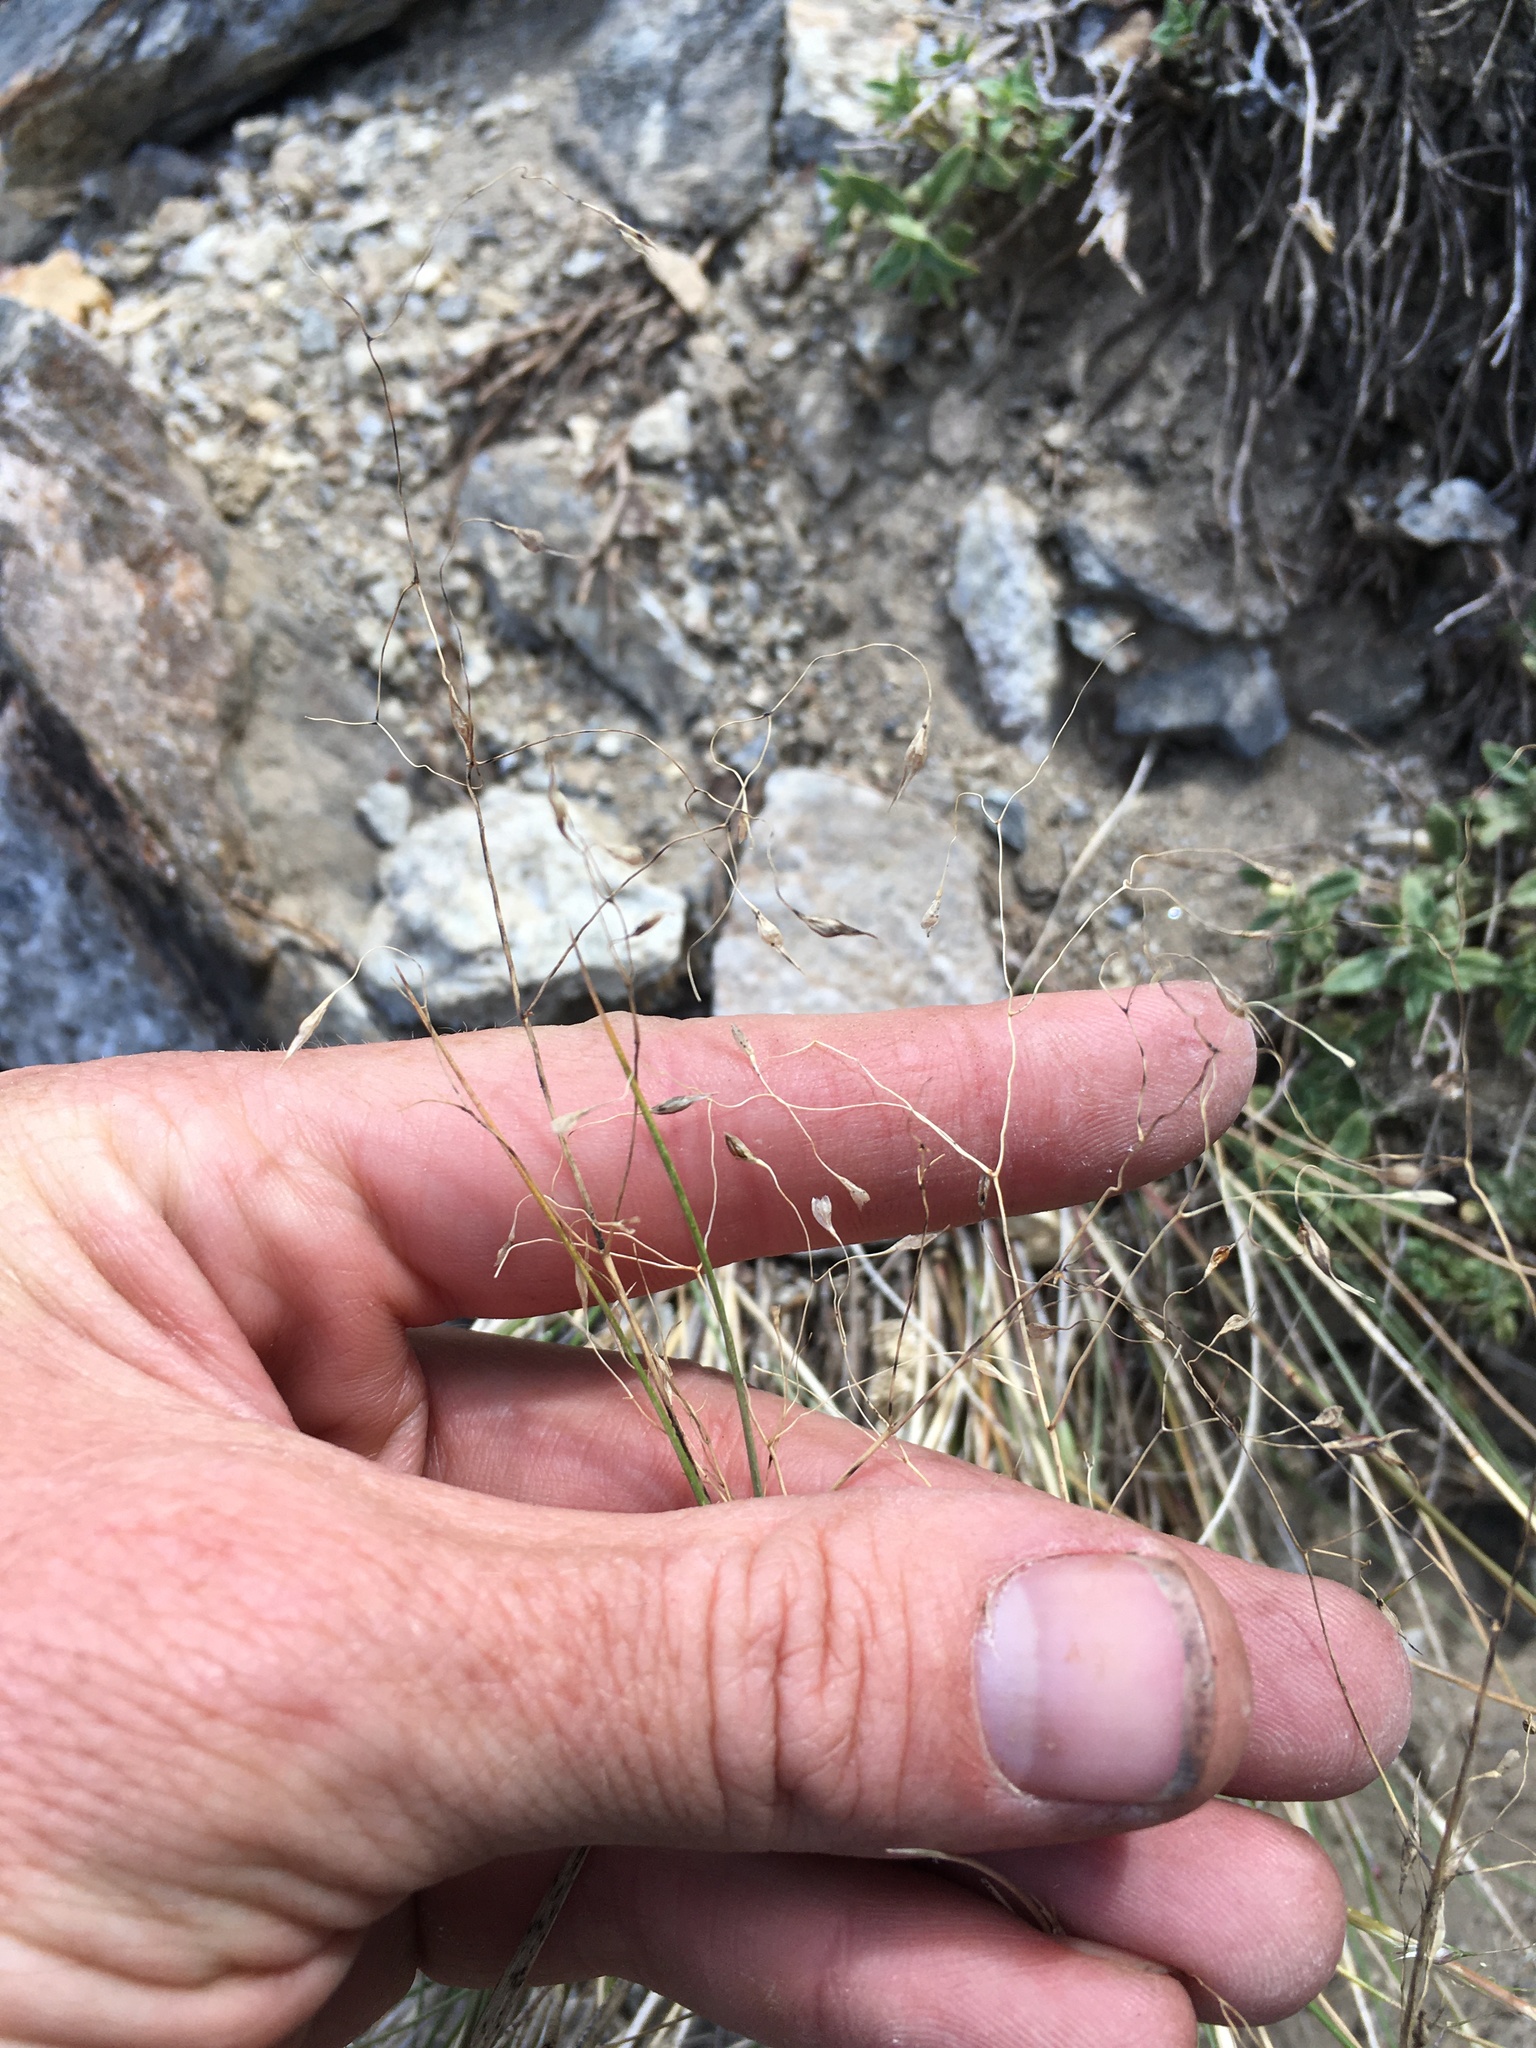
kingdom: Plantae
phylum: Tracheophyta
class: Liliopsida
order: Poales
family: Poaceae
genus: Eriocoma
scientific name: Eriocoma hymenoides
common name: Indian mountain ricegrass
